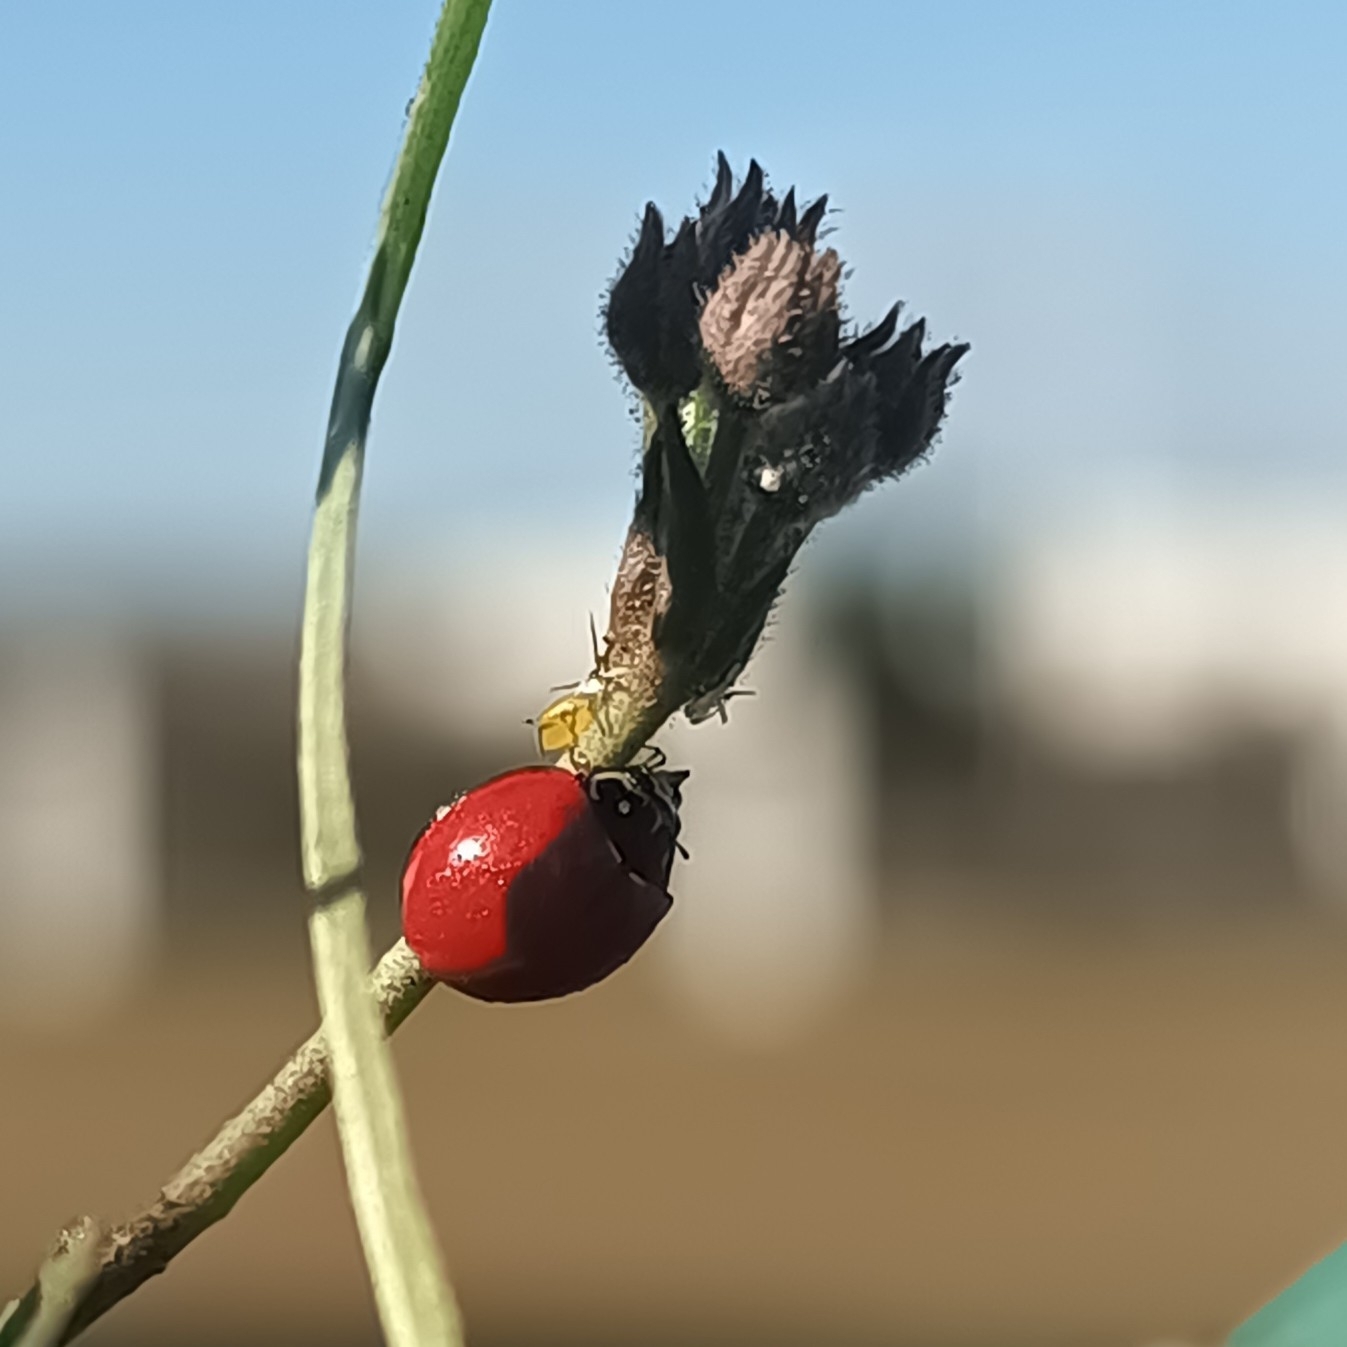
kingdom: Animalia
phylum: Arthropoda
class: Insecta
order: Coleoptera
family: Coccinellidae
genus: Cycloneda
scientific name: Cycloneda sanguinea
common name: Ladybird beetle
